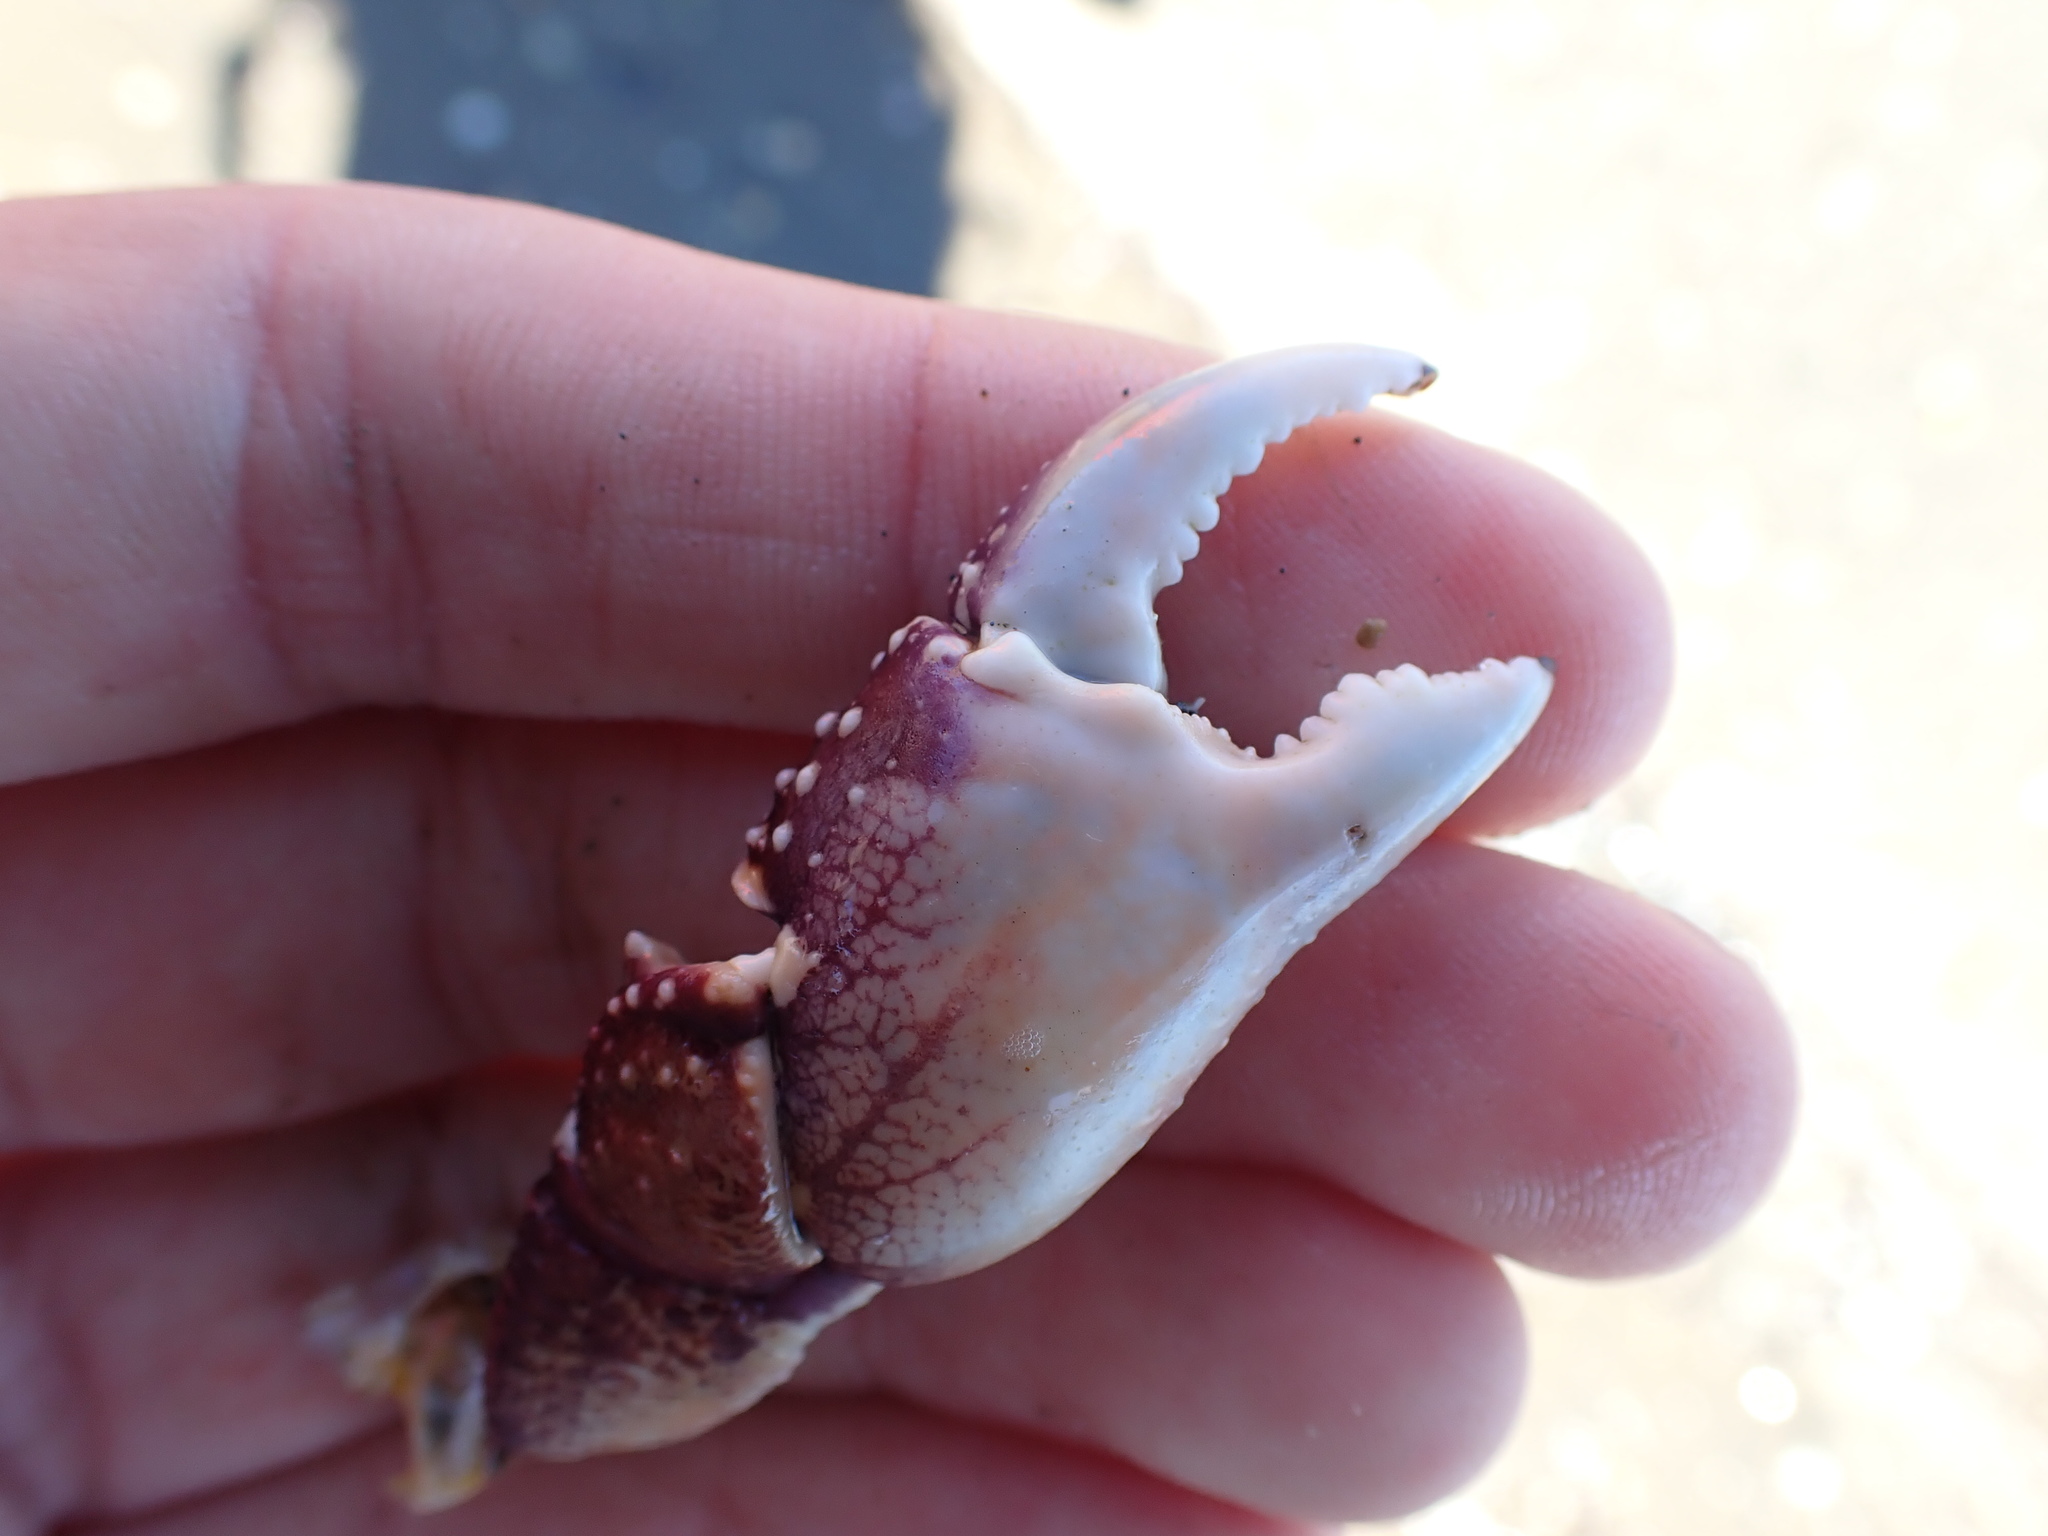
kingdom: Animalia
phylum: Arthropoda
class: Malacostraca
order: Decapoda
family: Grapsidae
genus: Leptograpsus
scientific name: Leptograpsus variegatus
